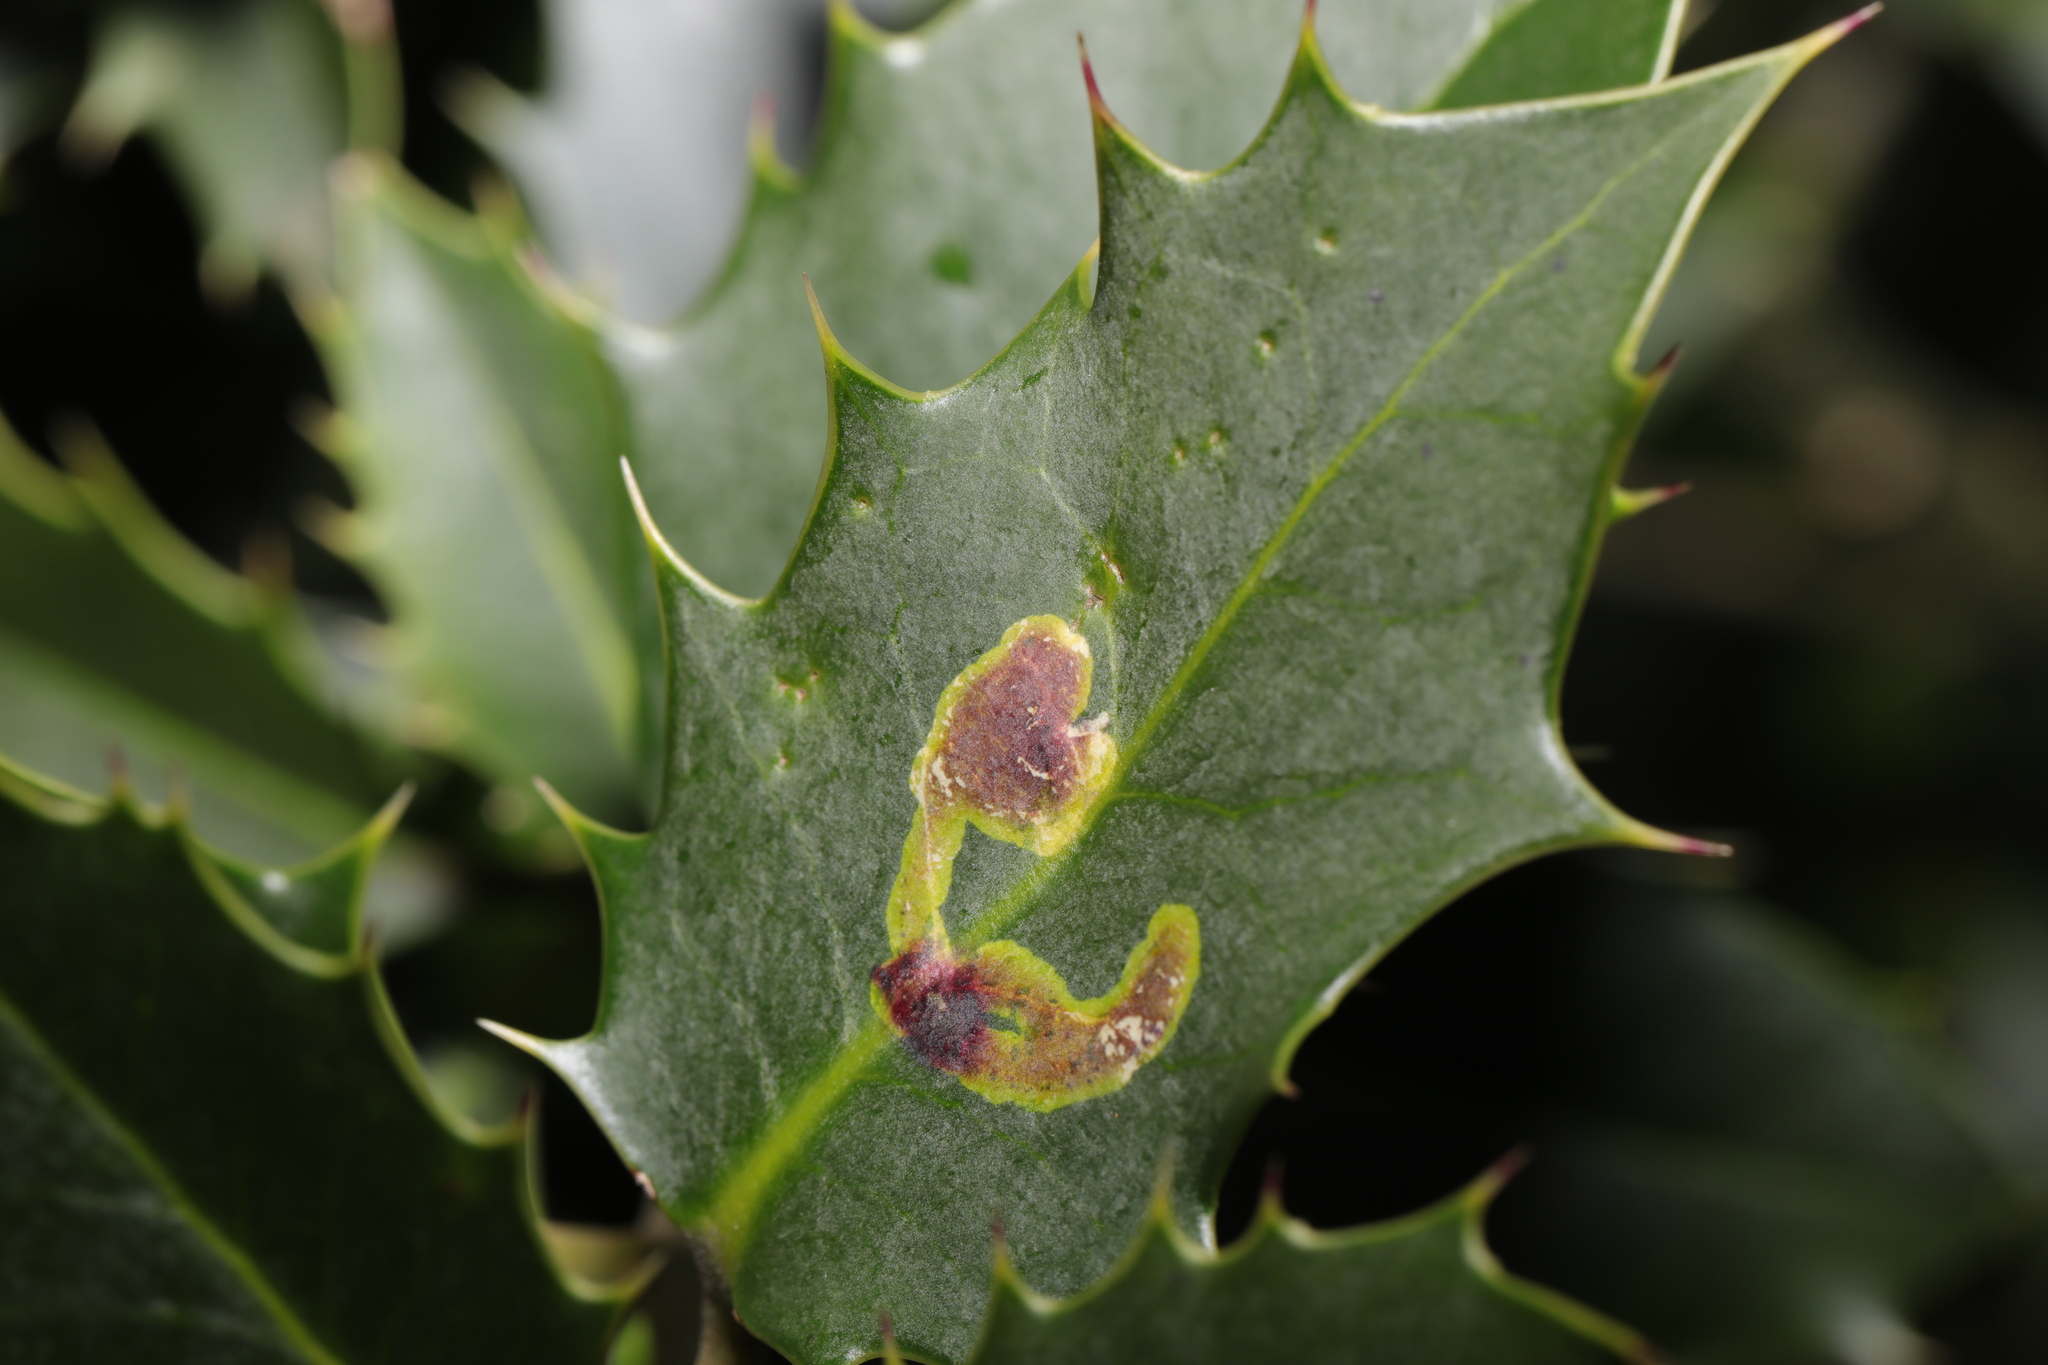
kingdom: Animalia
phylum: Arthropoda
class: Insecta
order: Diptera
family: Agromyzidae
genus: Phytomyza
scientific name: Phytomyza ilicis
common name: Holly leafminer
